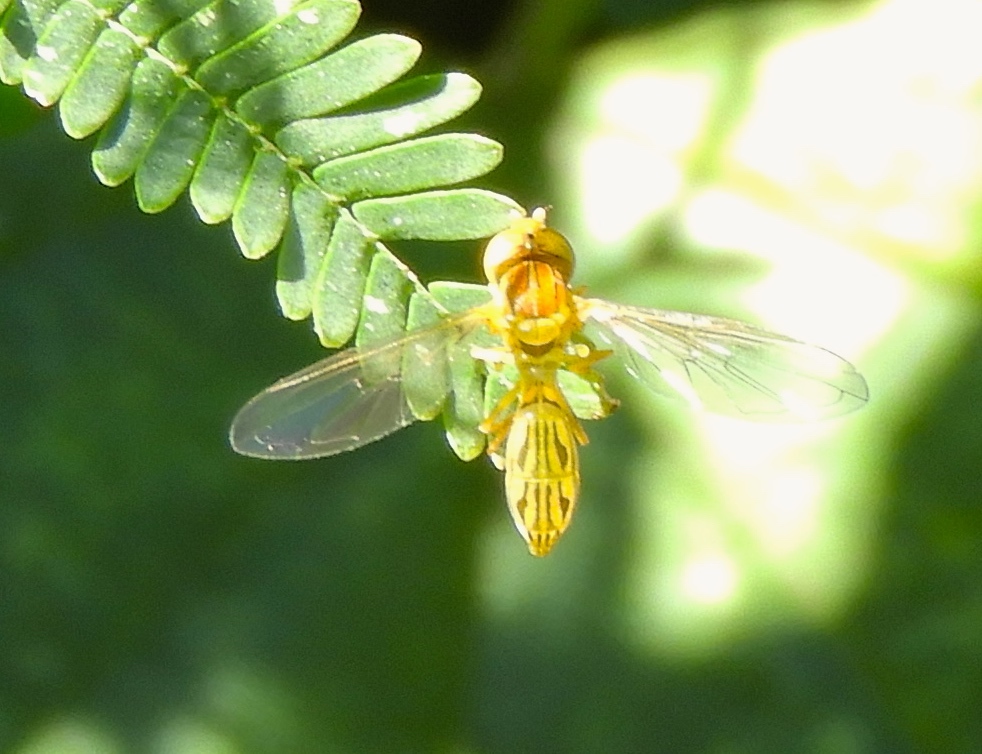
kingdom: Animalia
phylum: Arthropoda
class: Insecta
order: Diptera
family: Syrphidae
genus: Hybobathus
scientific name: Hybobathus
